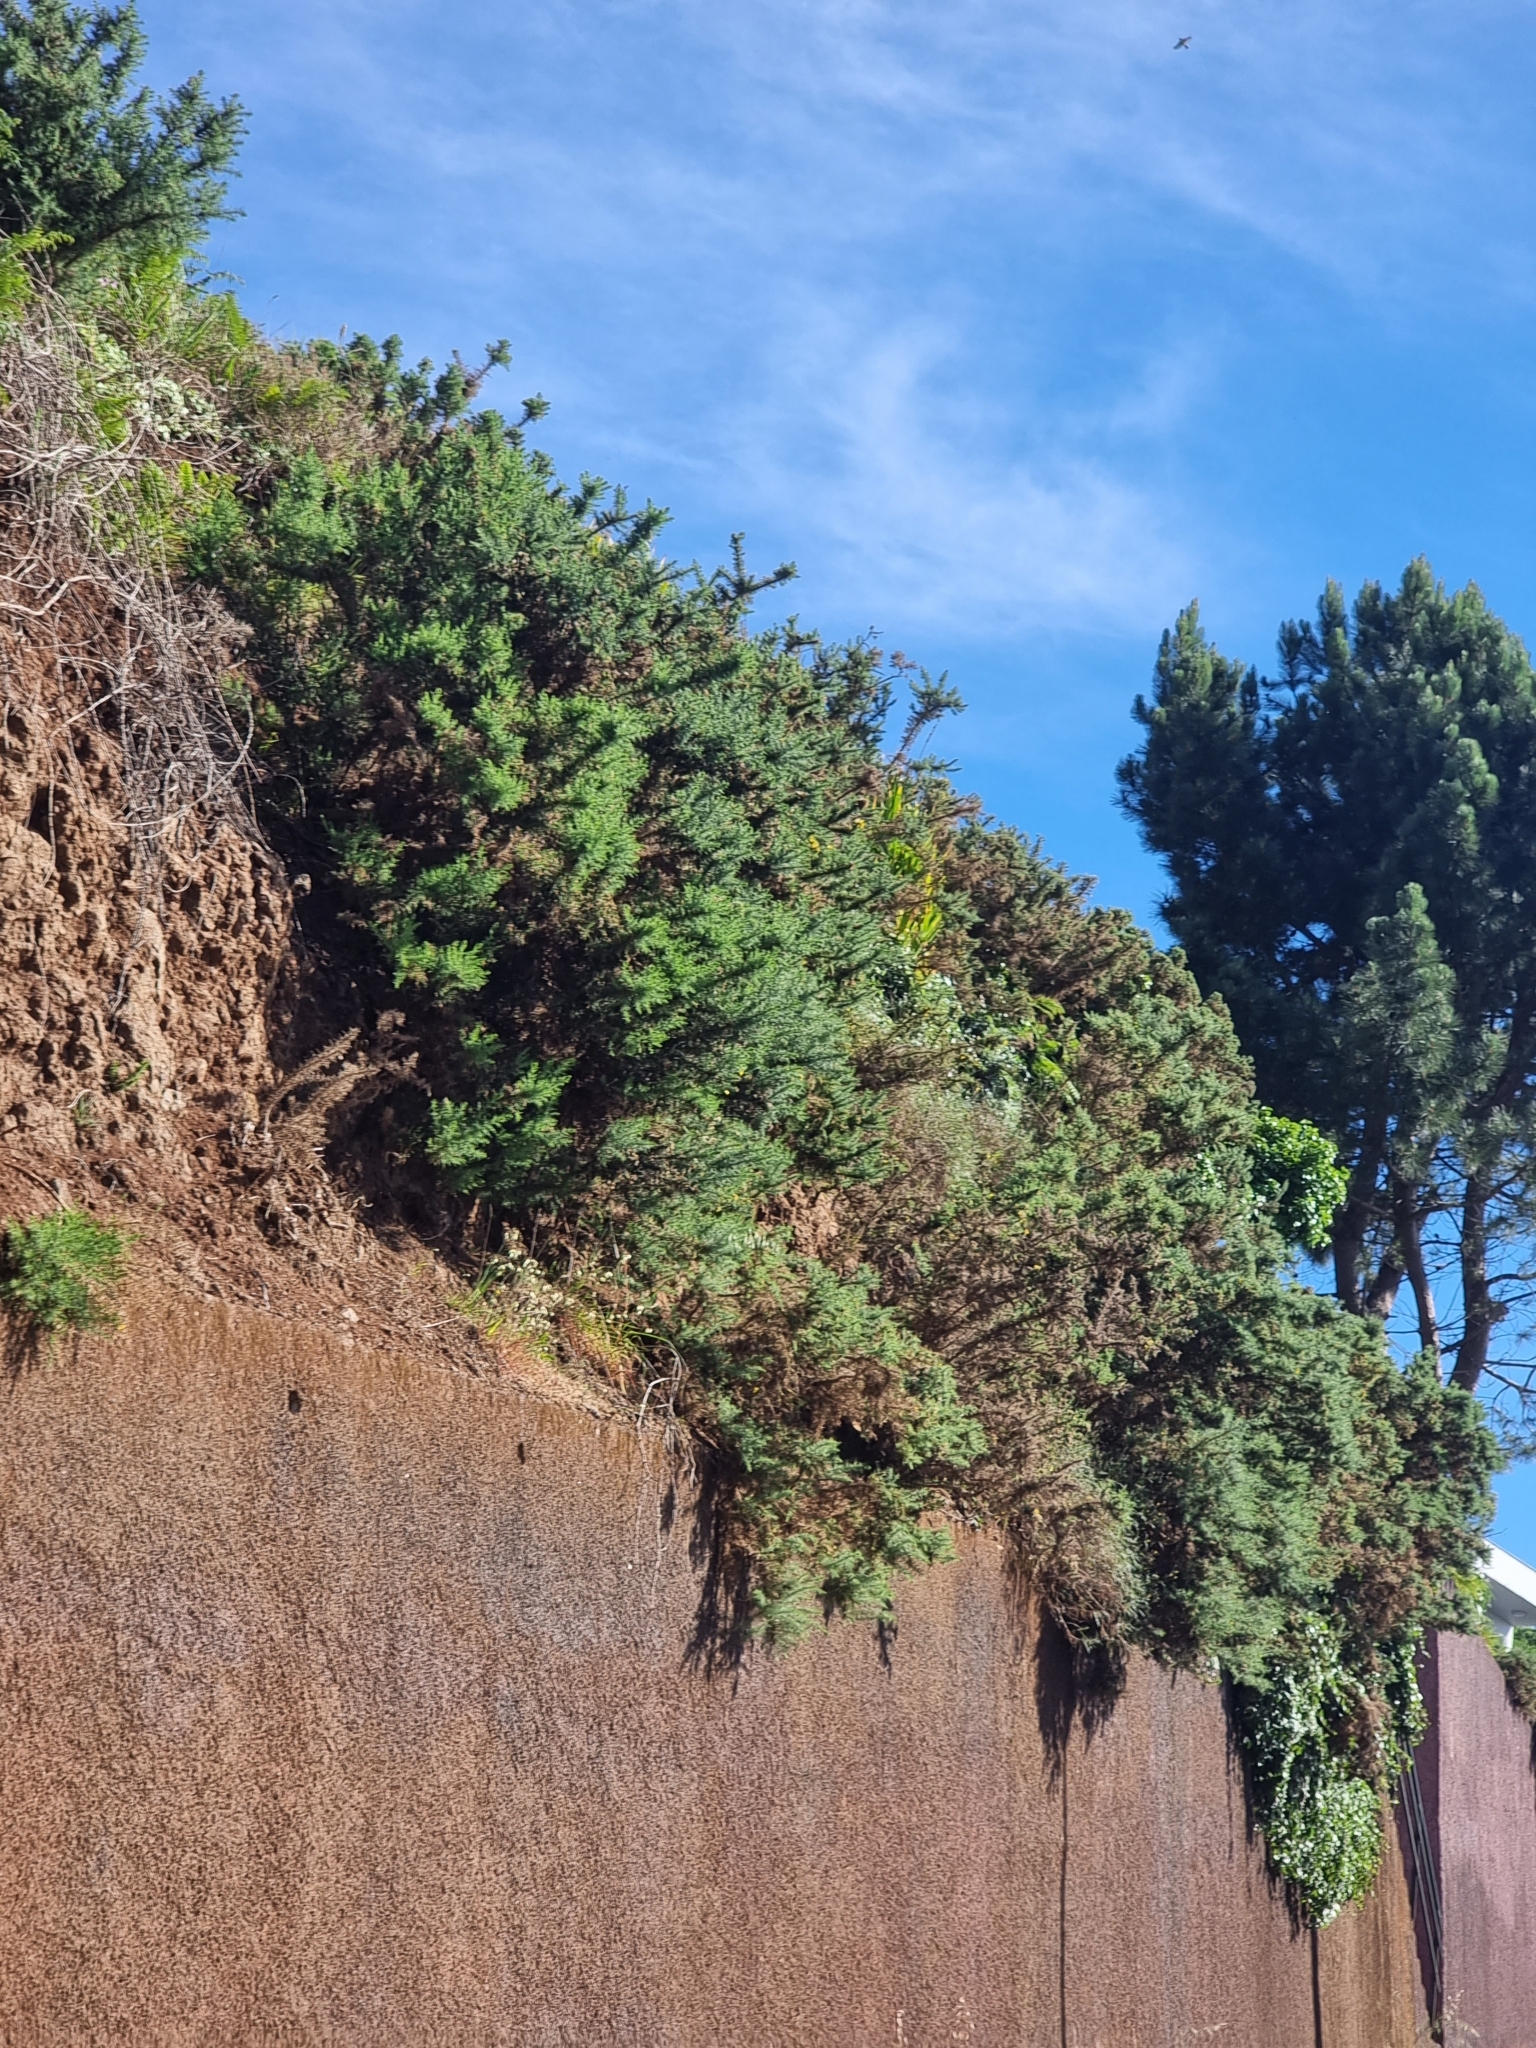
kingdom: Plantae
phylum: Tracheophyta
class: Magnoliopsida
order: Fabales
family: Fabaceae
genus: Ulex
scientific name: Ulex europaeus
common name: Common gorse
